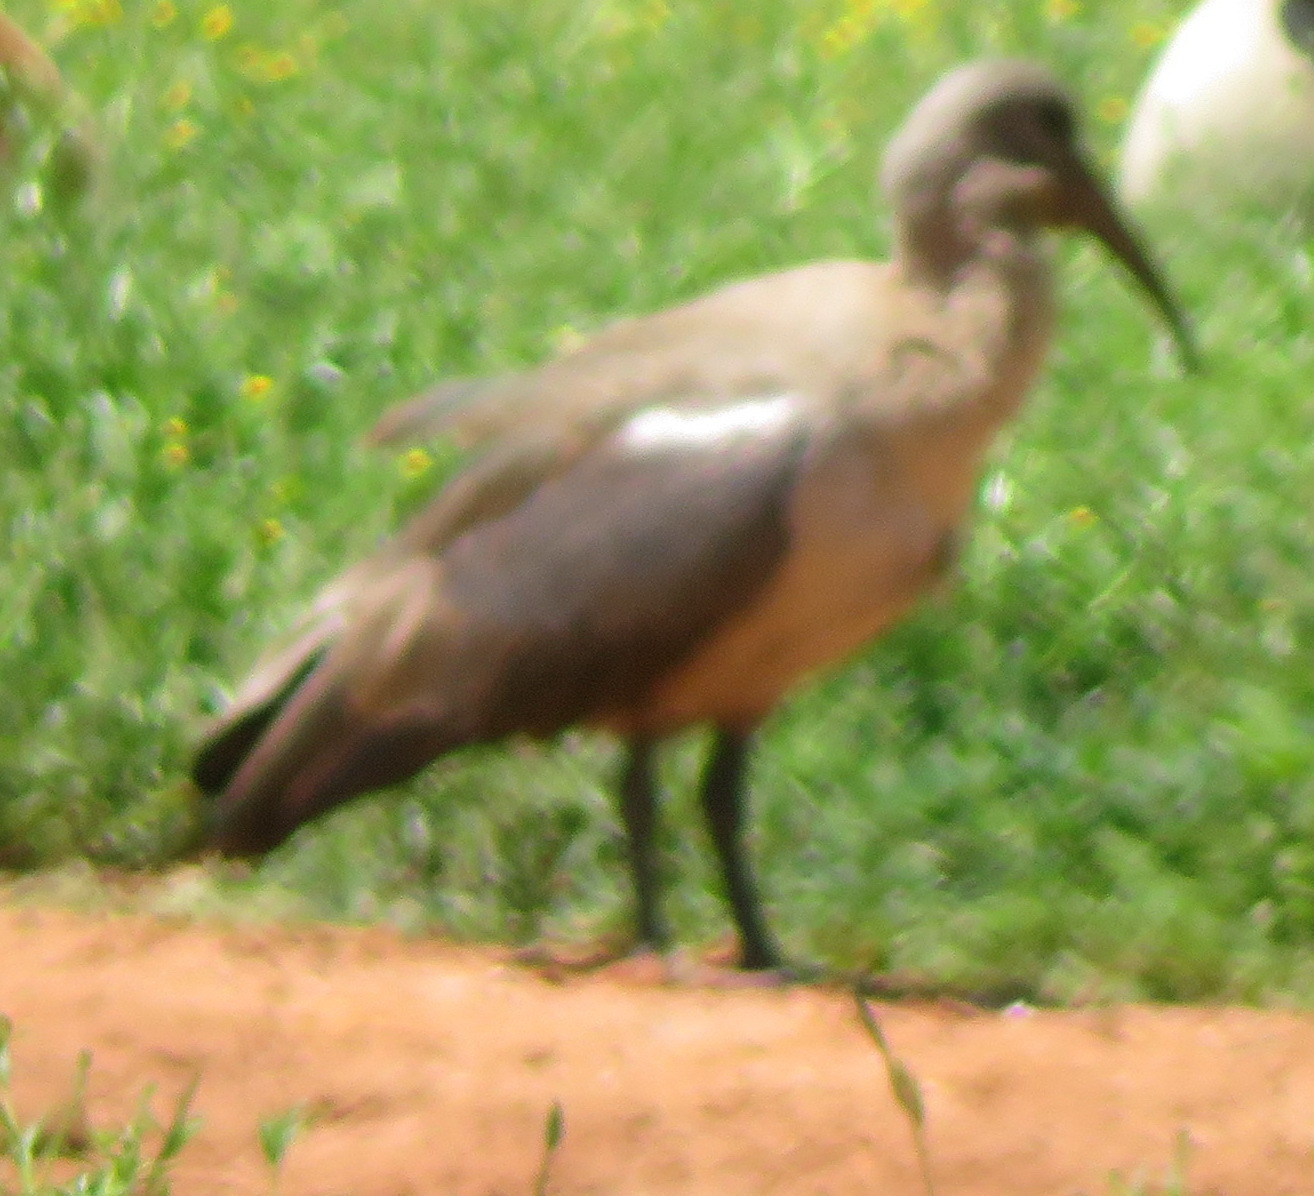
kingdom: Animalia
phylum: Chordata
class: Aves
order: Pelecaniformes
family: Threskiornithidae
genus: Bostrychia
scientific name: Bostrychia hagedash
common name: Hadada ibis
